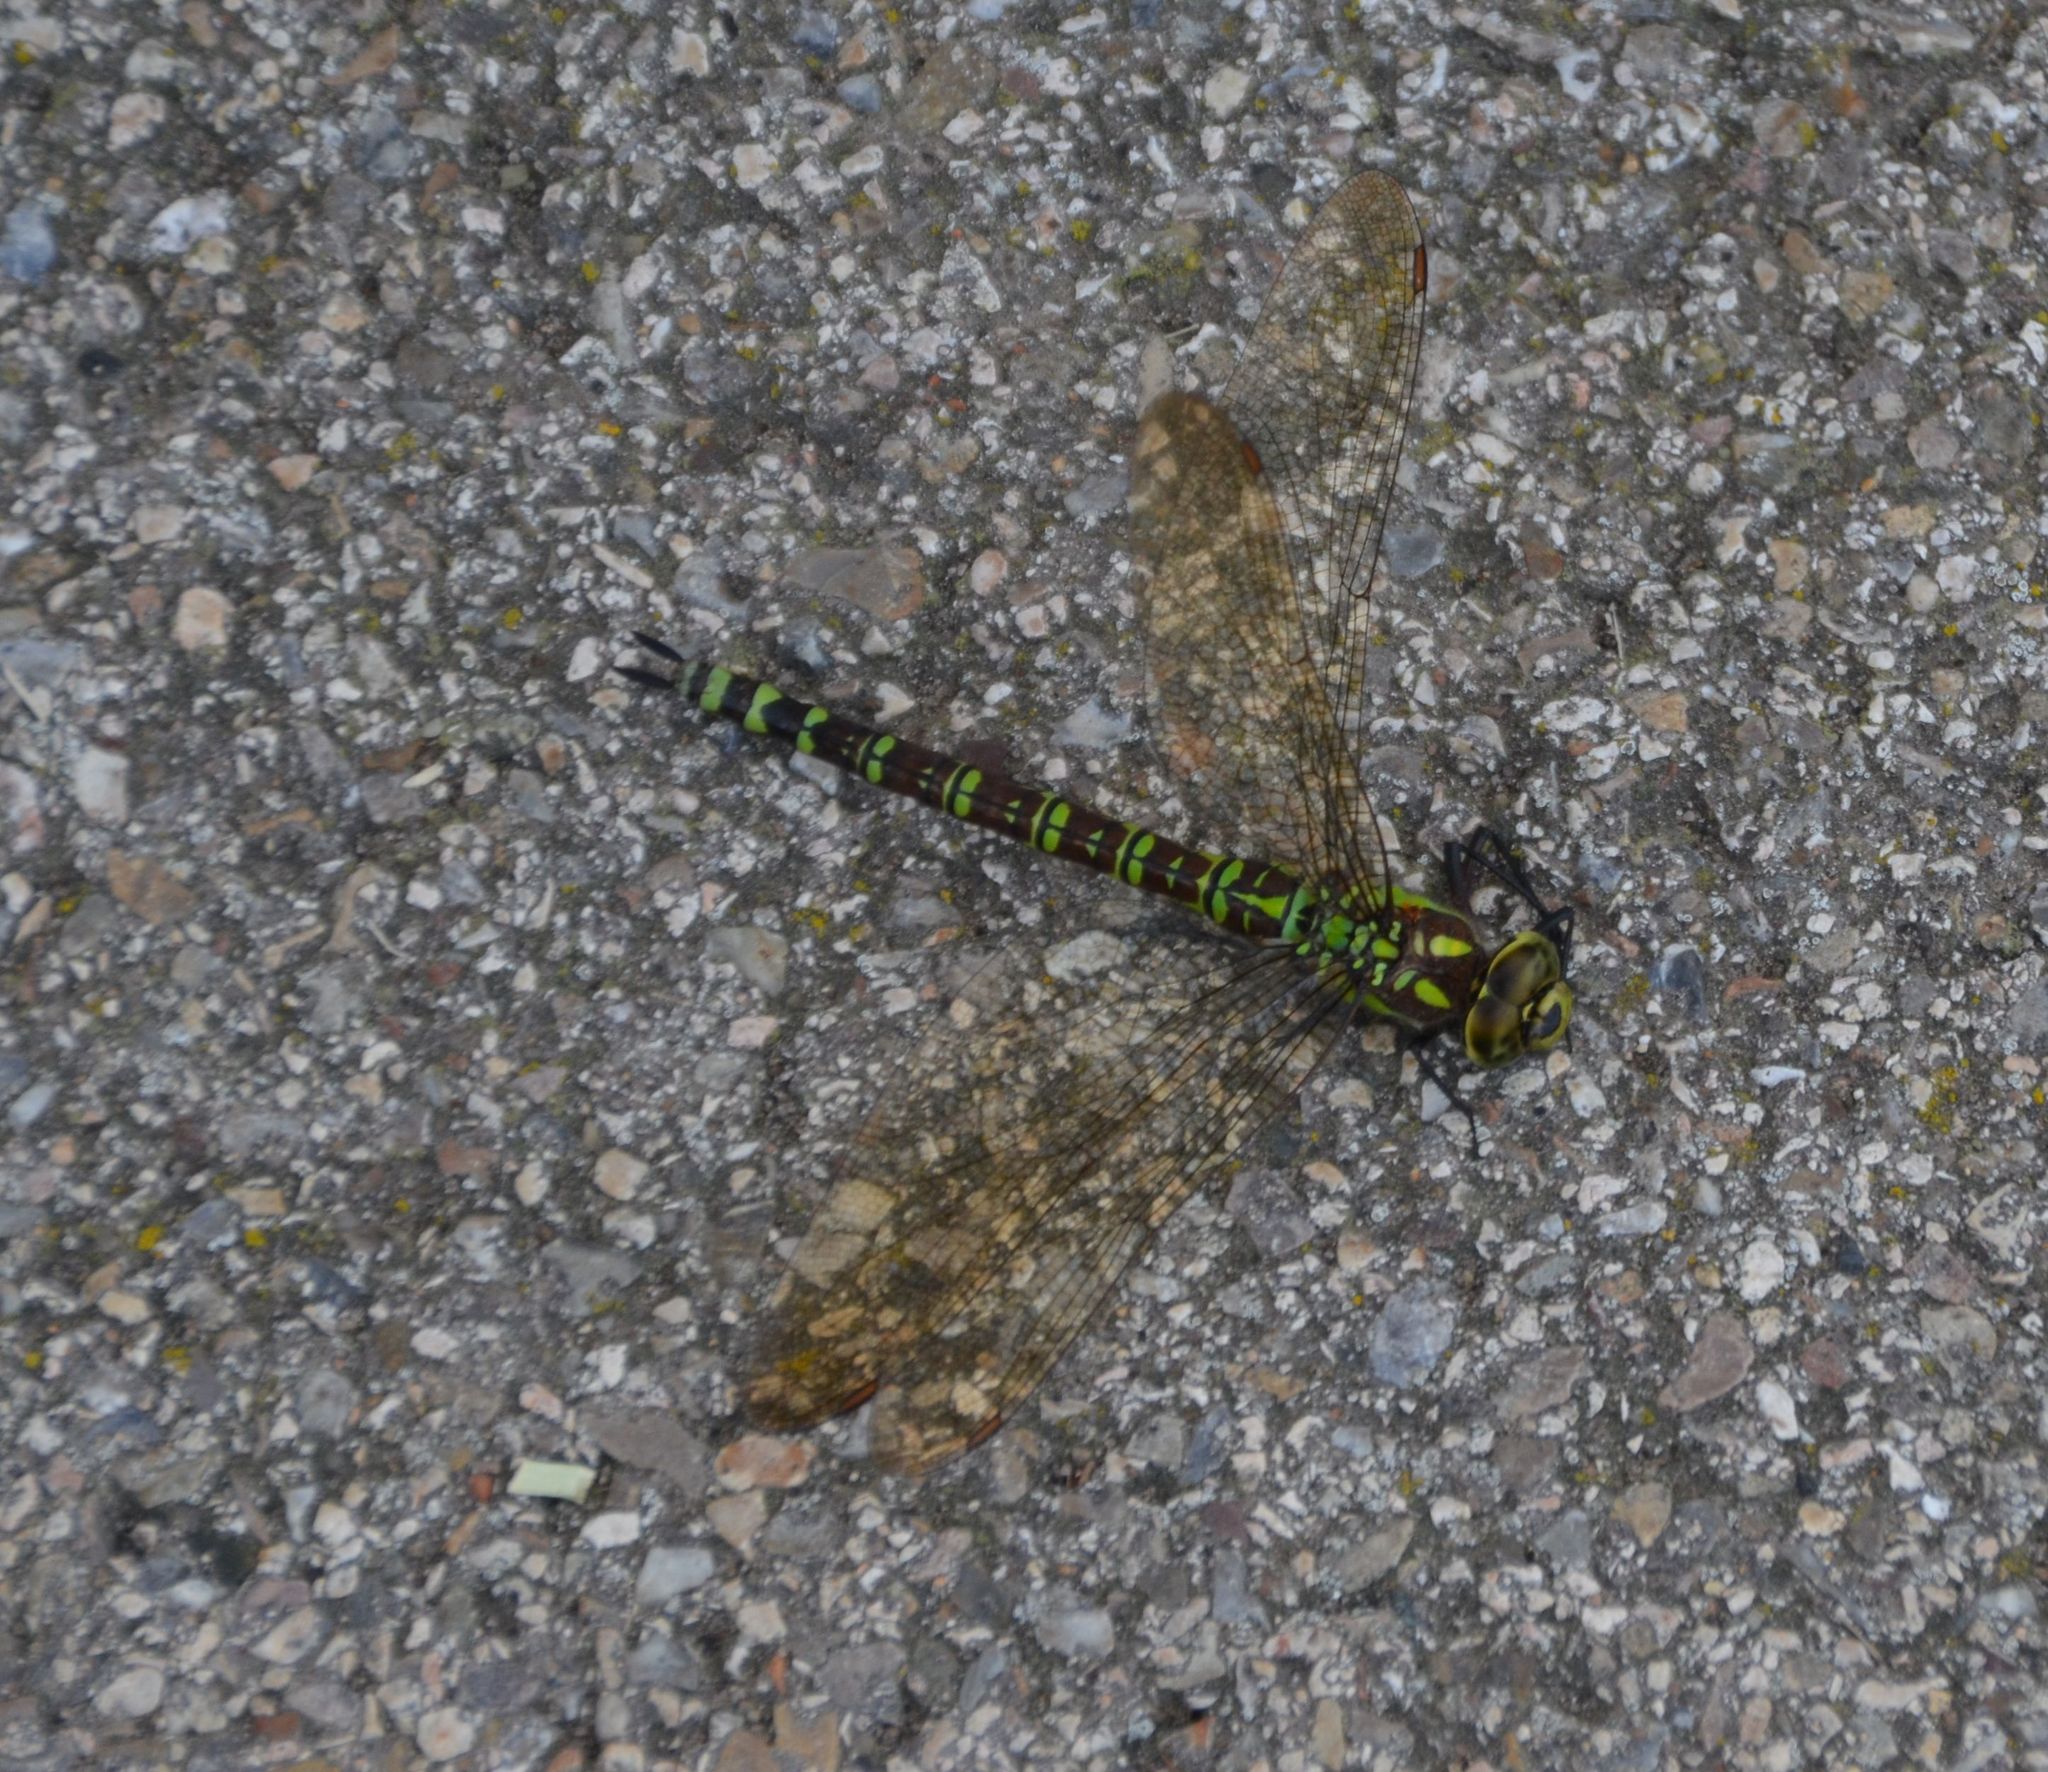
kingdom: Animalia
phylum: Arthropoda
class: Insecta
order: Odonata
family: Aeshnidae
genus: Aeshna
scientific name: Aeshna cyanea
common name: Southern hawker
